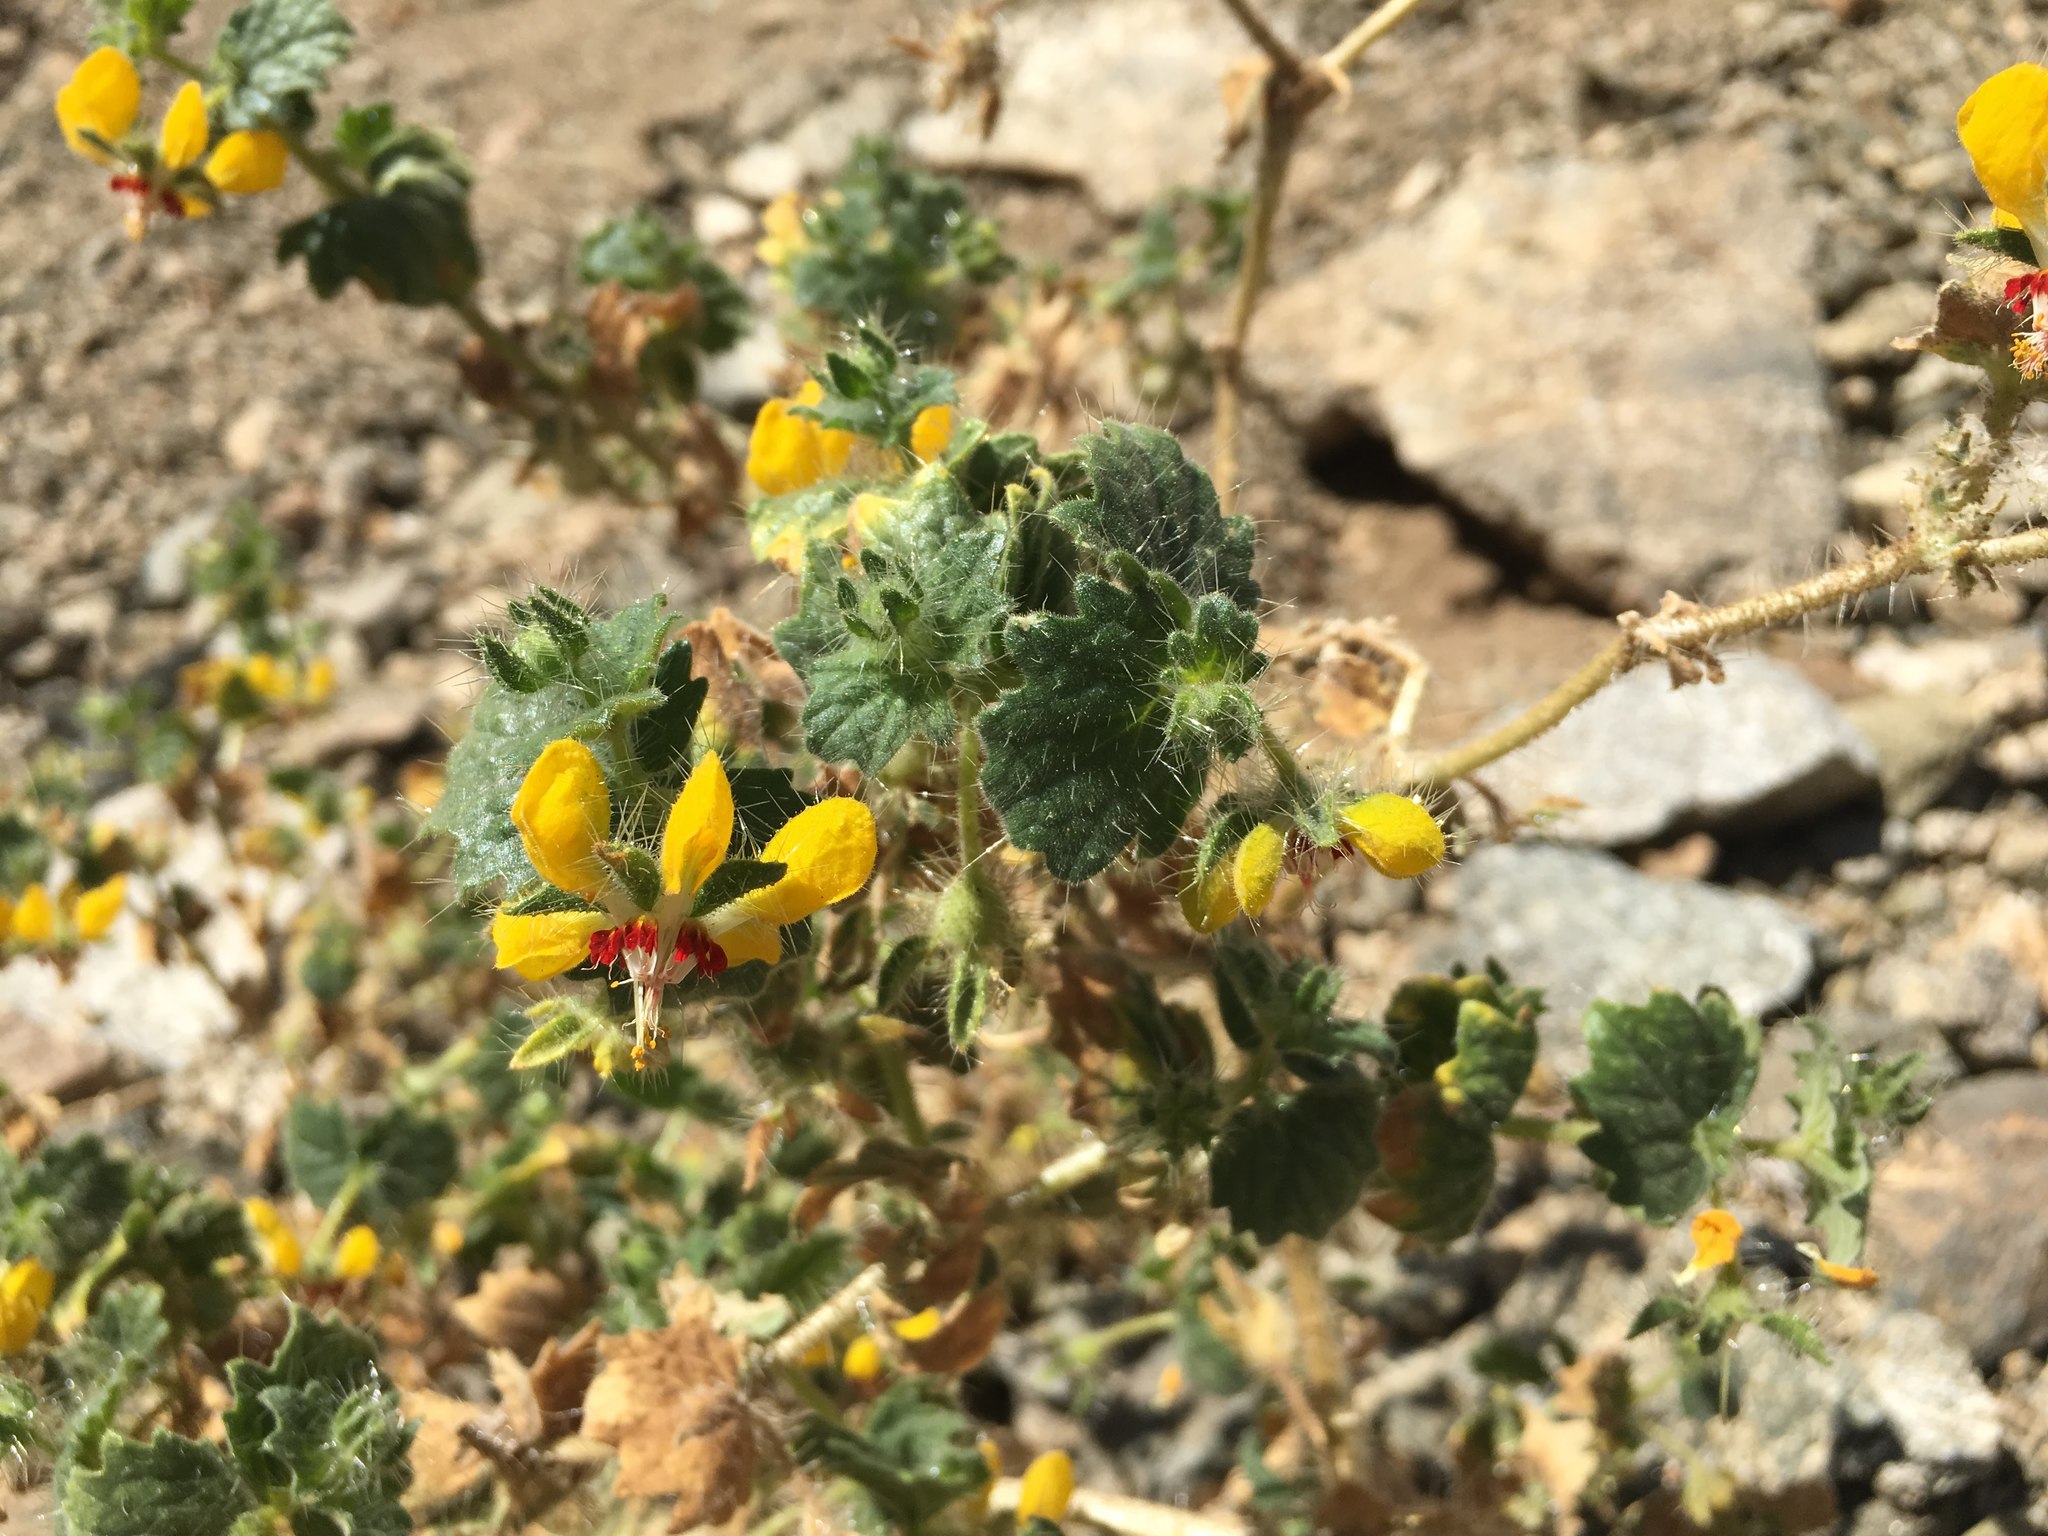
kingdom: Plantae
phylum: Tracheophyta
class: Magnoliopsida
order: Cornales
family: Loasaceae
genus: Loasa
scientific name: Loasa rotundifolia
